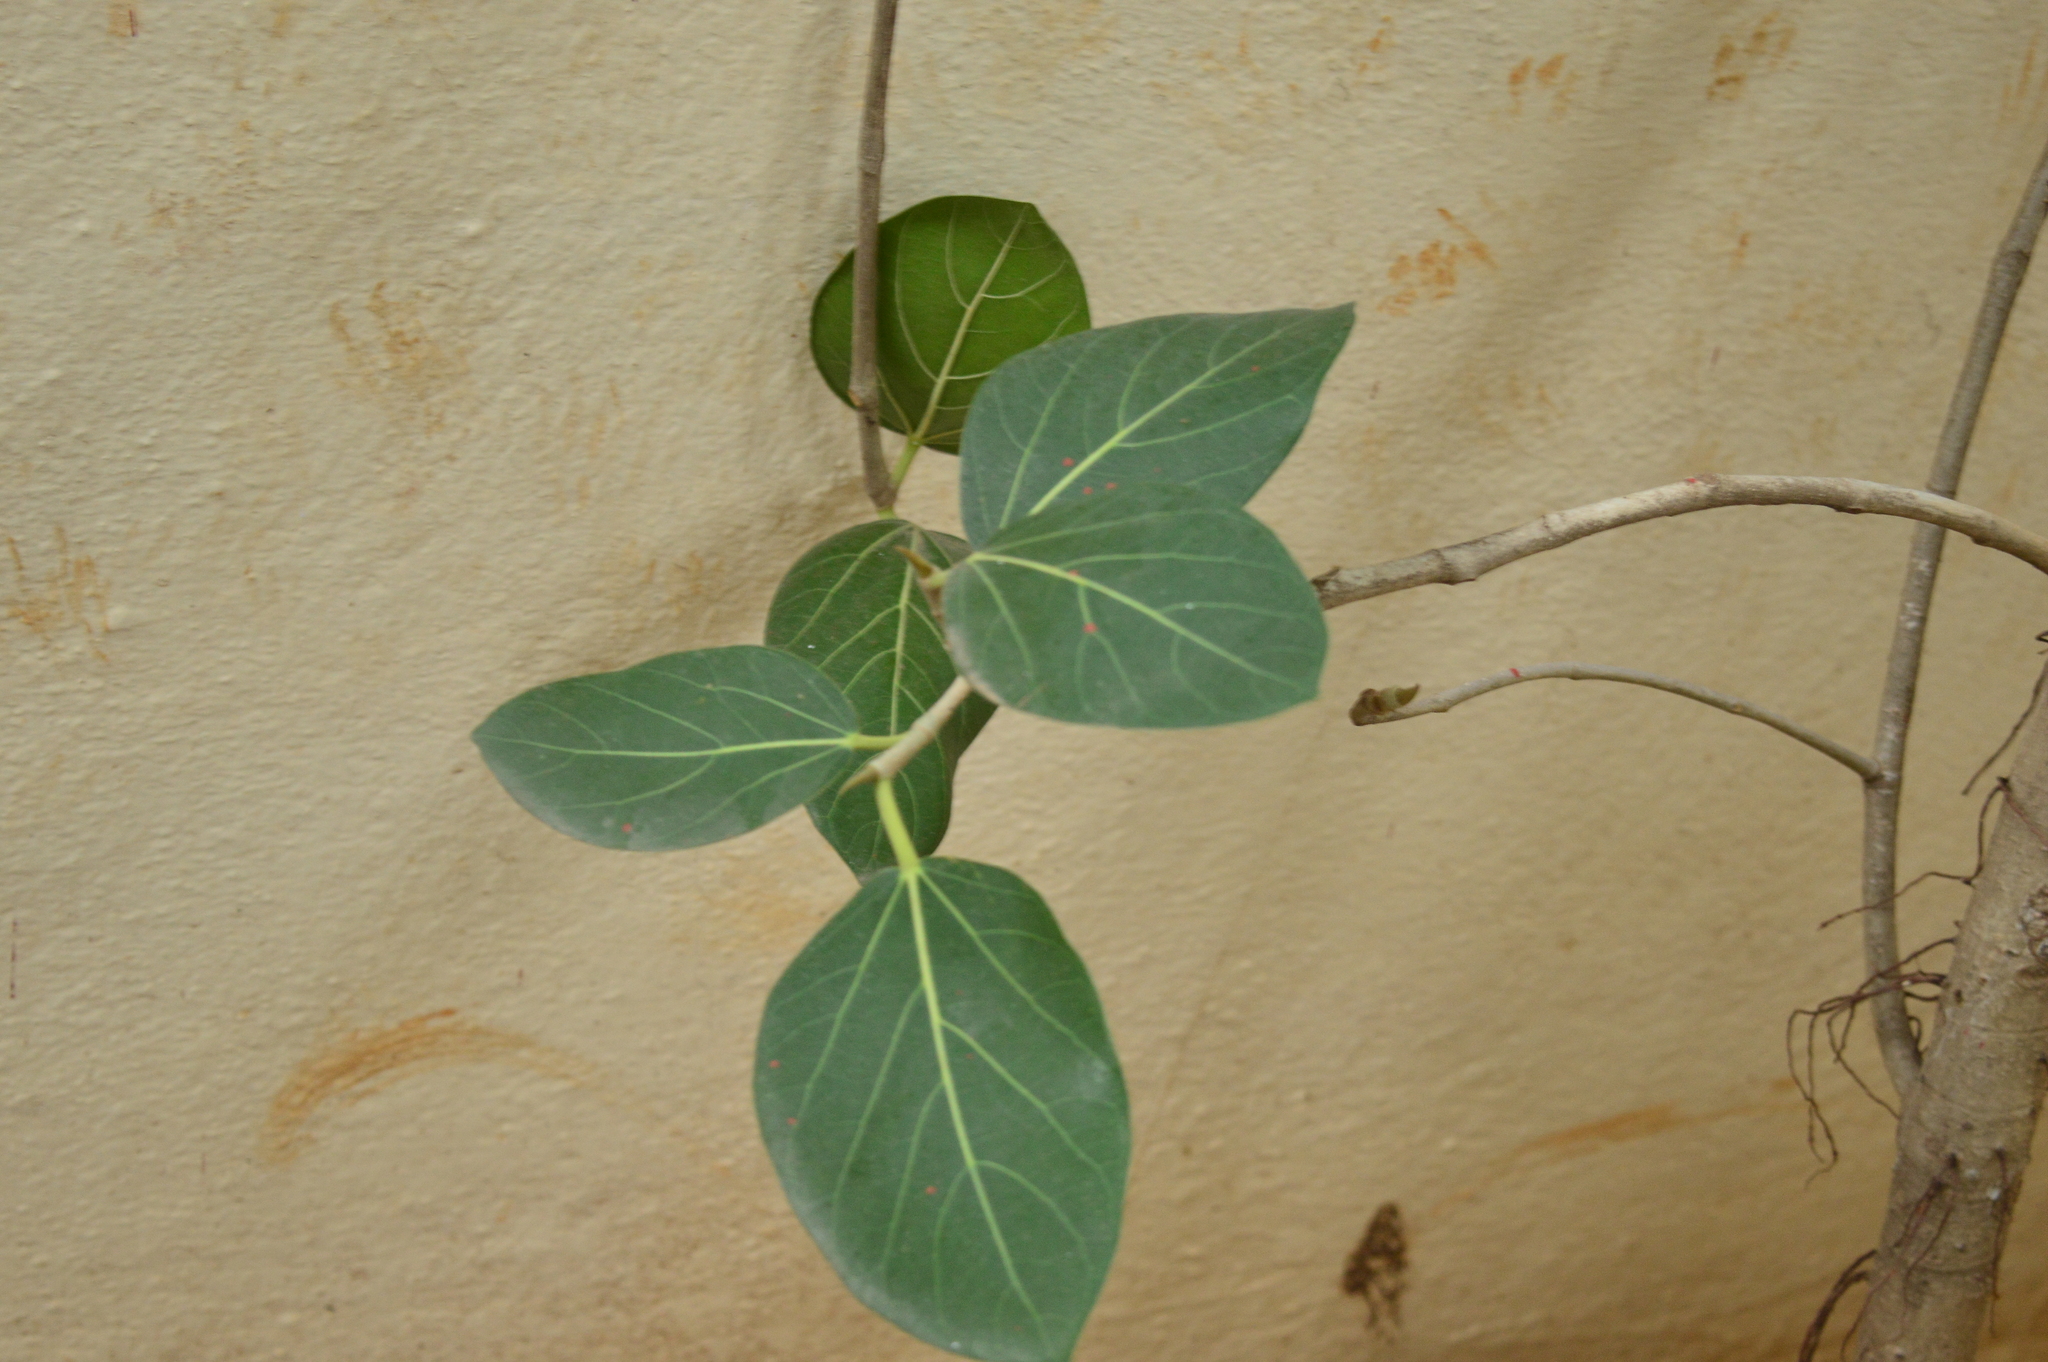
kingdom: Plantae
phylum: Tracheophyta
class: Magnoliopsida
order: Rosales
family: Moraceae
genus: Ficus
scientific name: Ficus benghalensis
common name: Indian banyan
